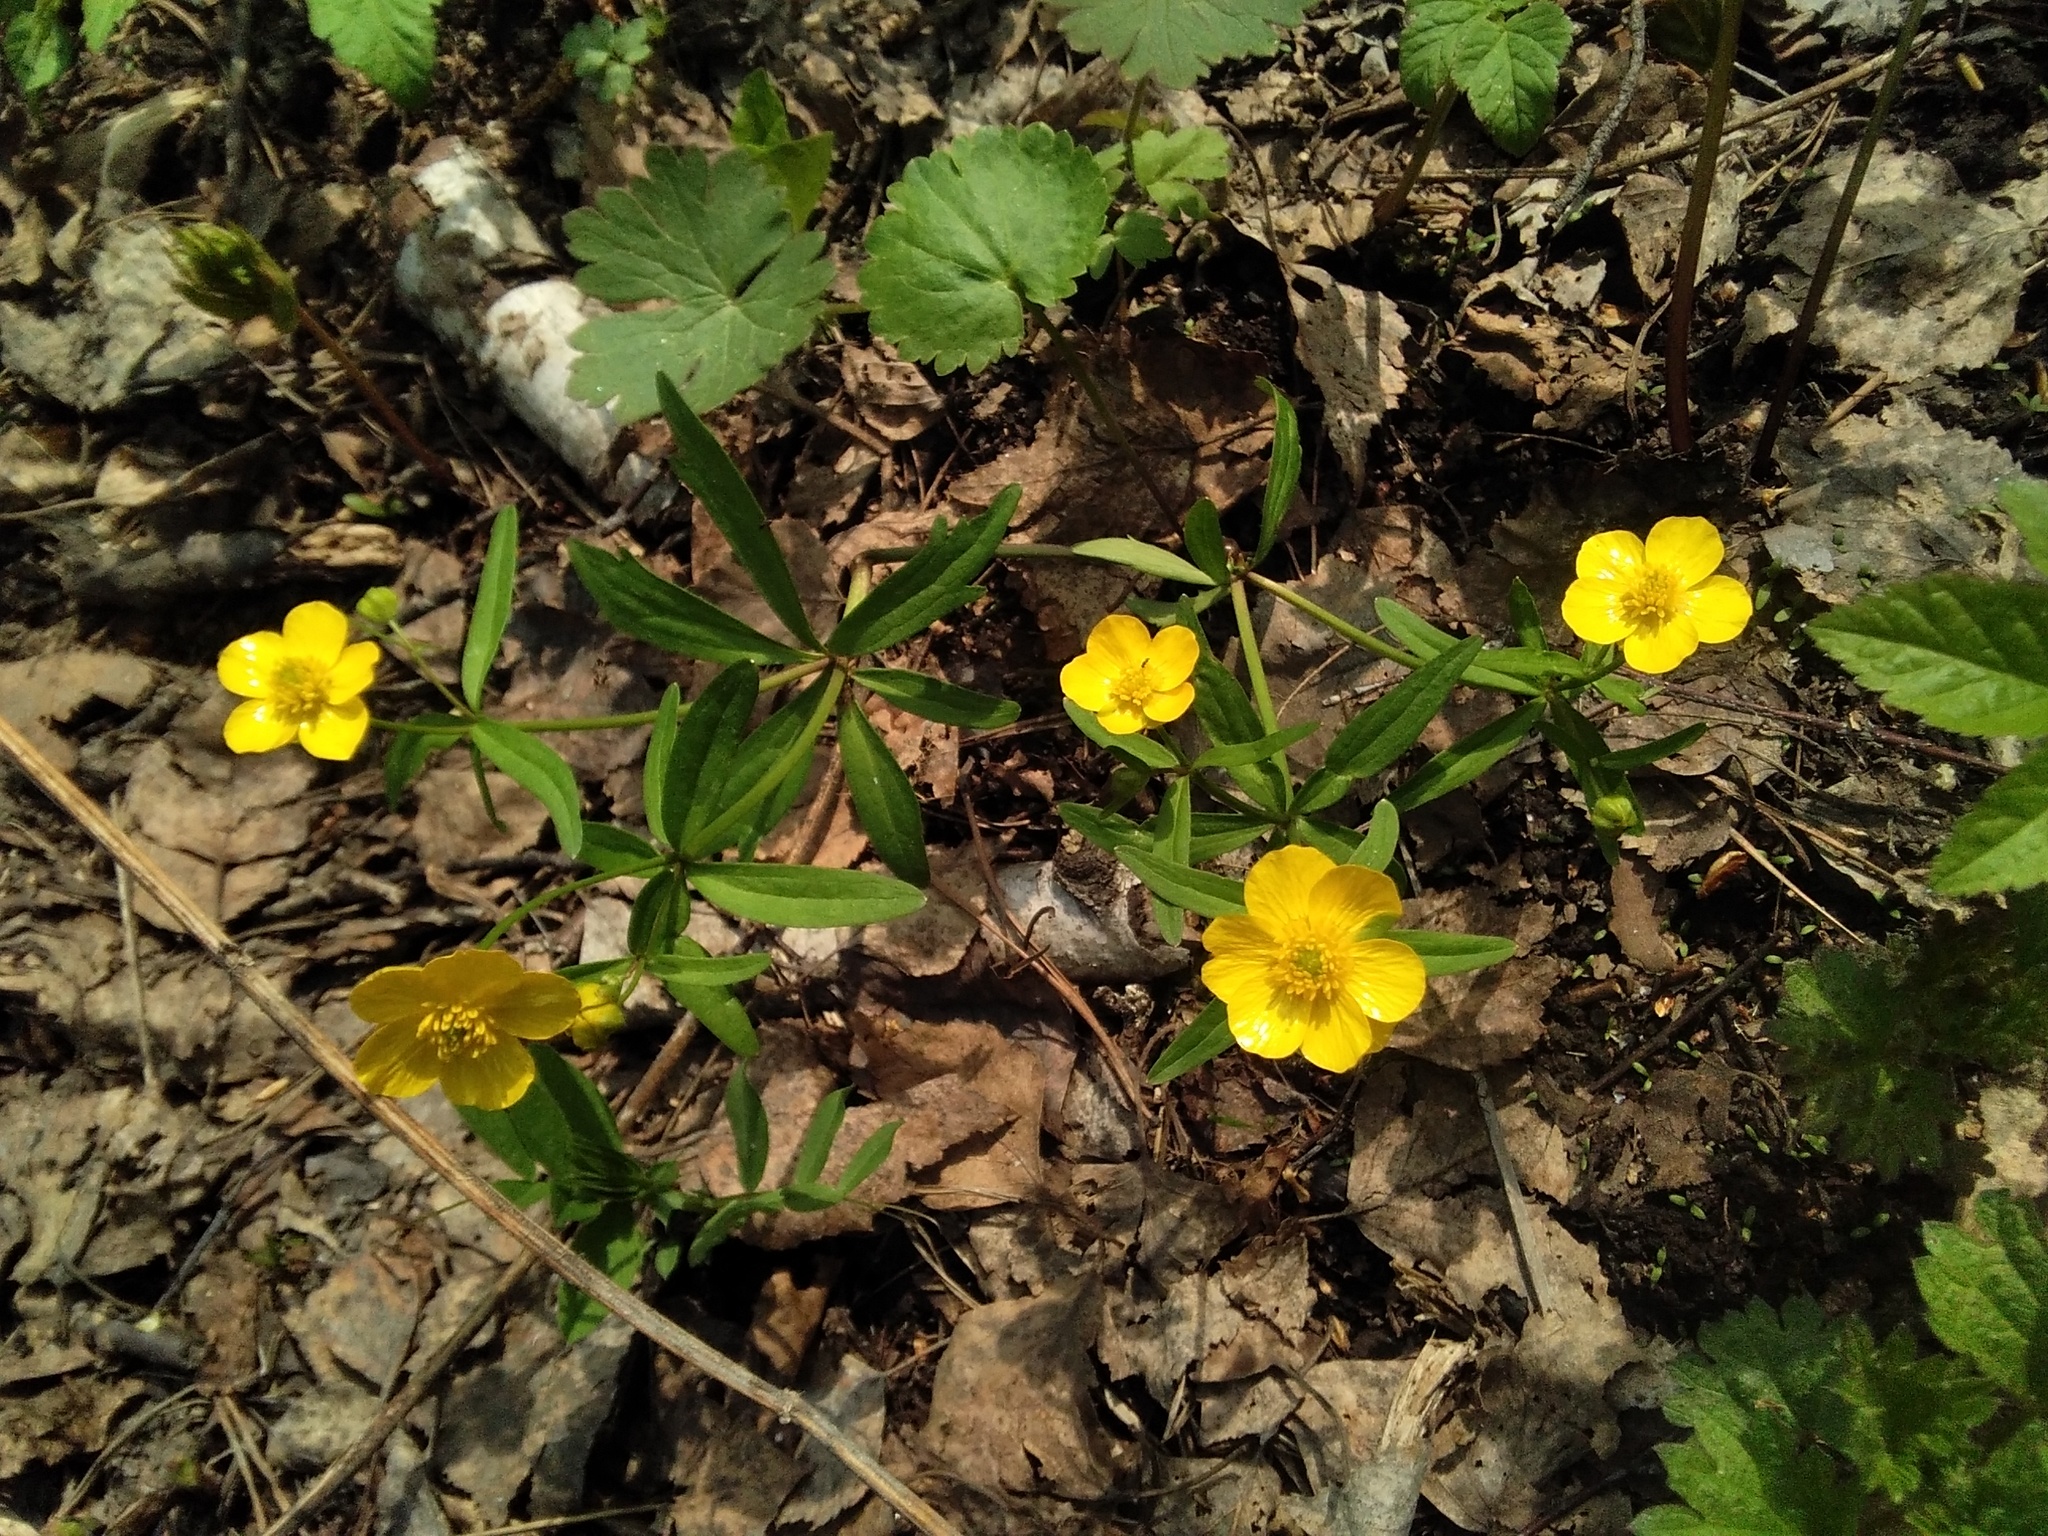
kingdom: Plantae
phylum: Tracheophyta
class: Magnoliopsida
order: Ranunculales
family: Ranunculaceae
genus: Ranunculus
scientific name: Ranunculus monophyllus
